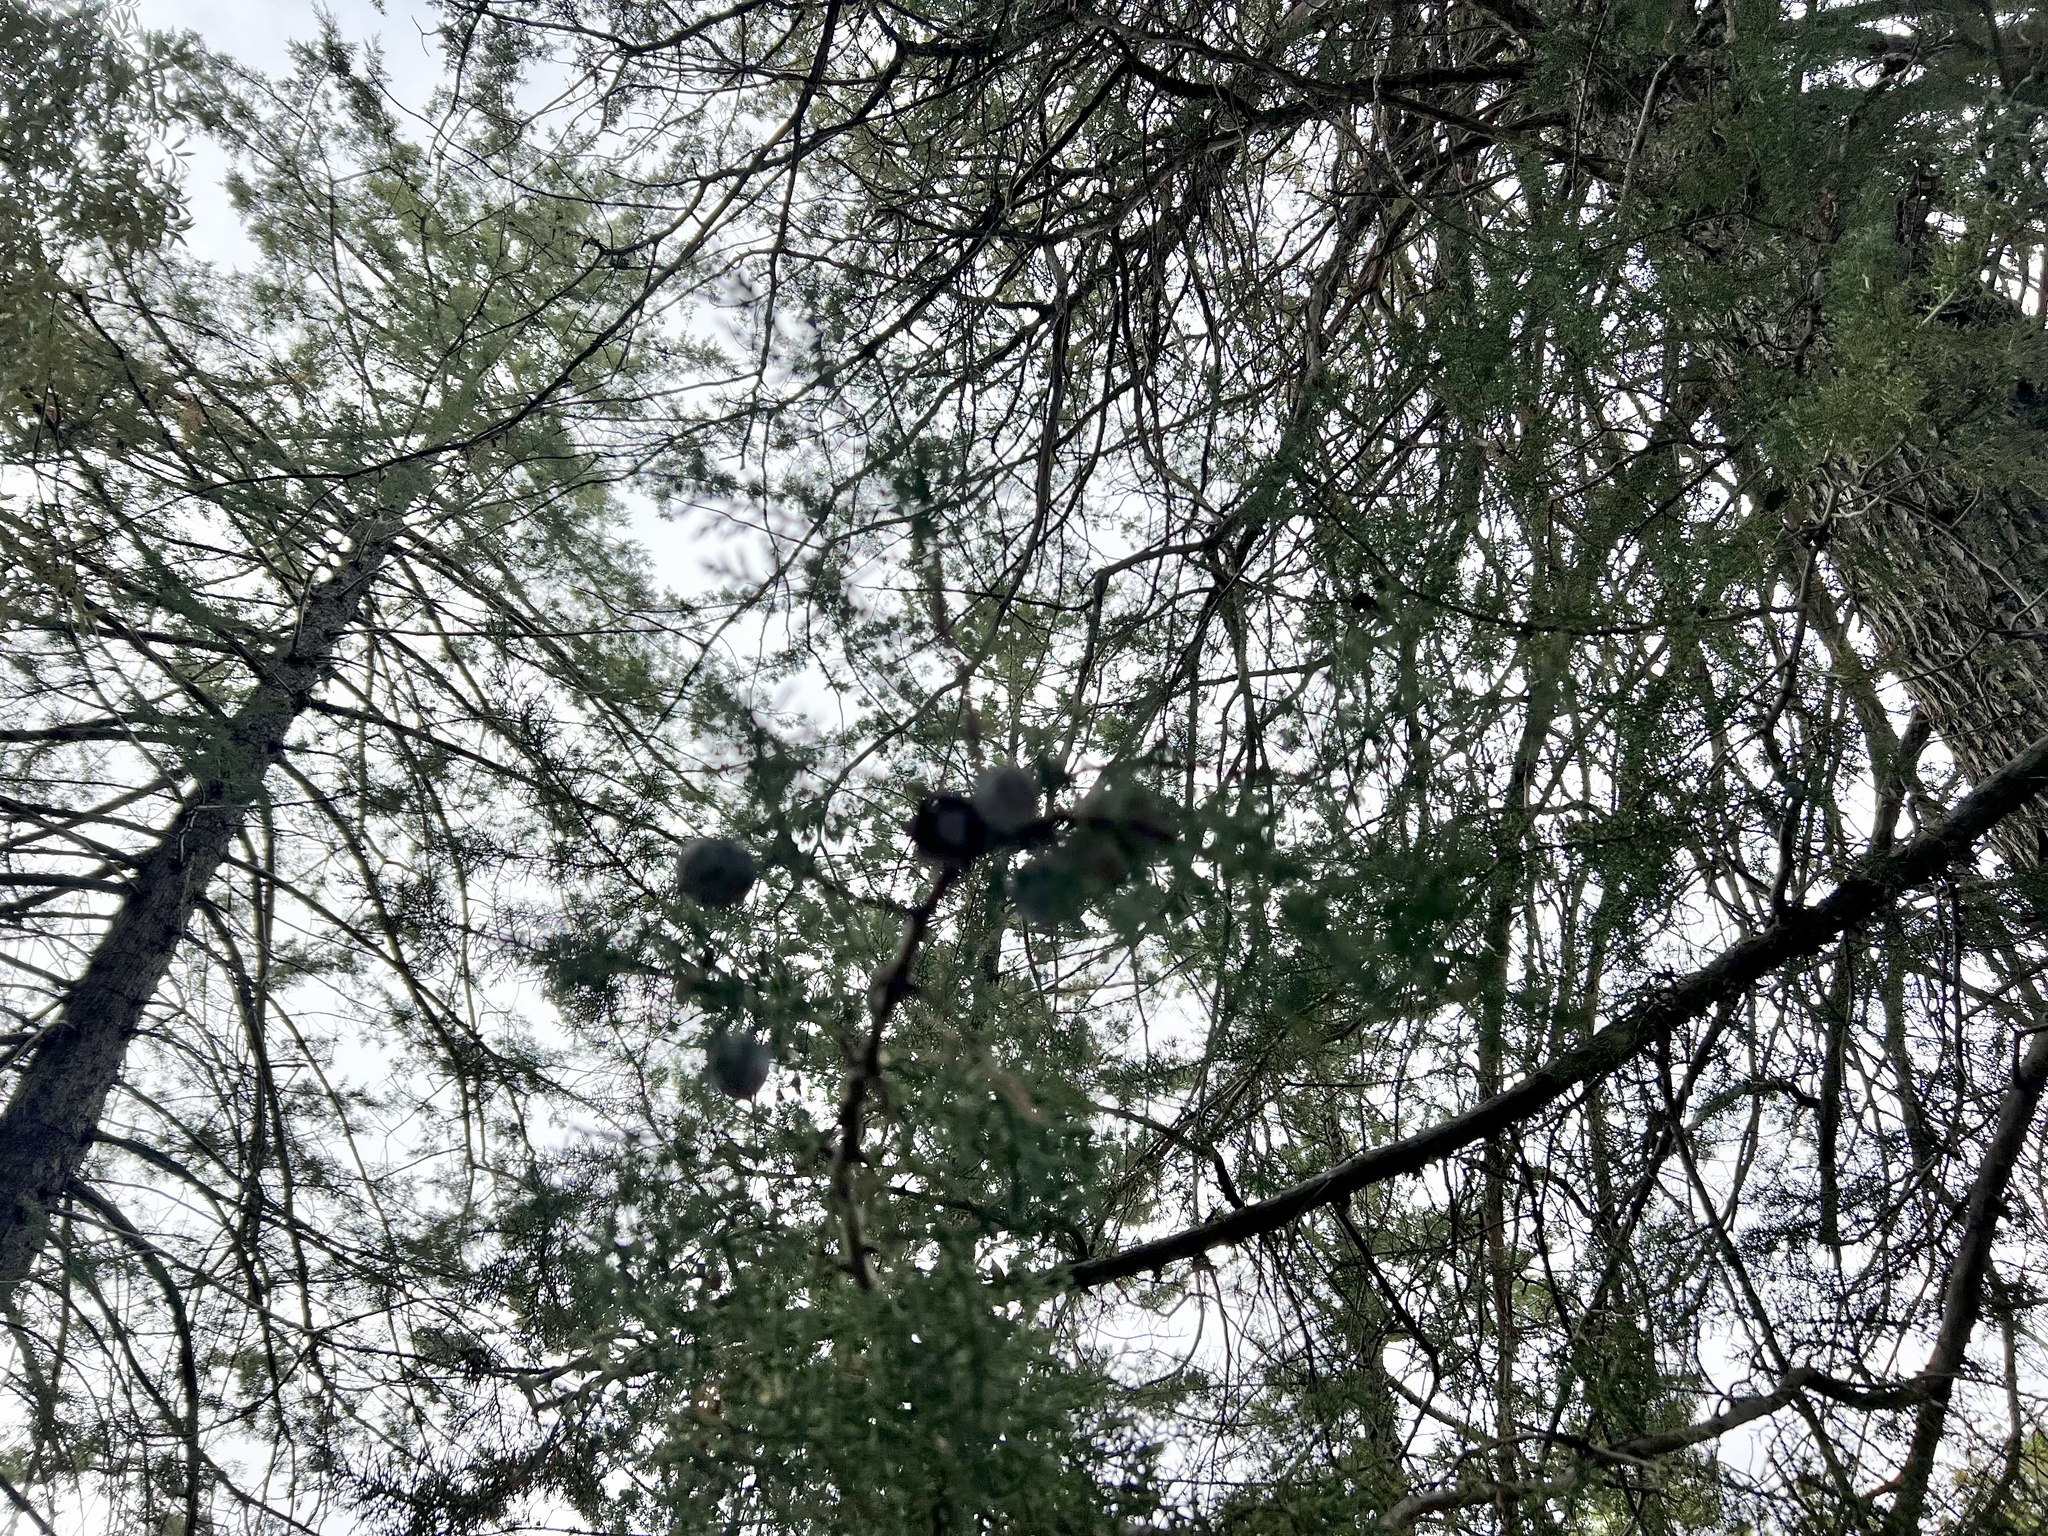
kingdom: Plantae
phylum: Tracheophyta
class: Pinopsida
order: Pinales
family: Cupressaceae
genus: Cupressus
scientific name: Cupressus arizonica
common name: Arizona cypress
